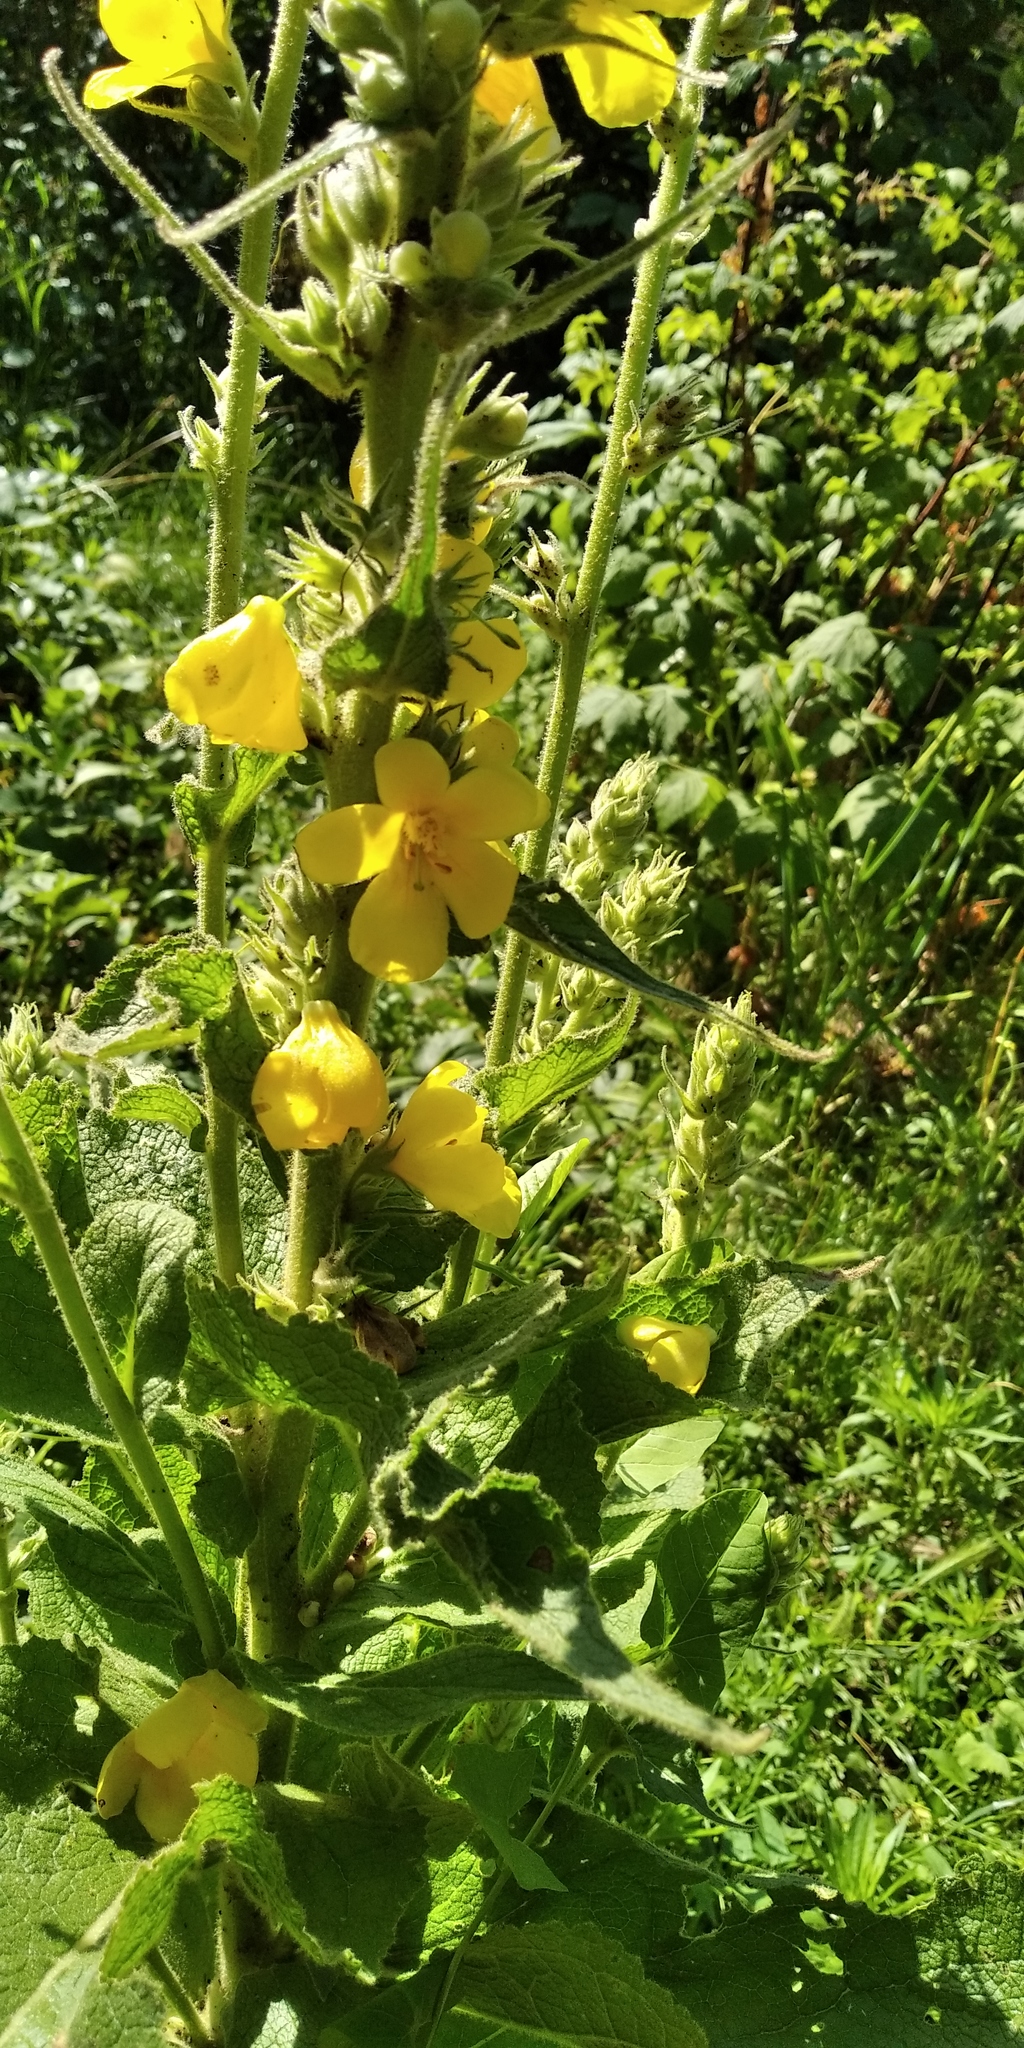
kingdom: Plantae
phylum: Tracheophyta
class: Magnoliopsida
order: Lamiales
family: Scrophulariaceae
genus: Verbascum
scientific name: Verbascum phlomoides
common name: Orange mullein
